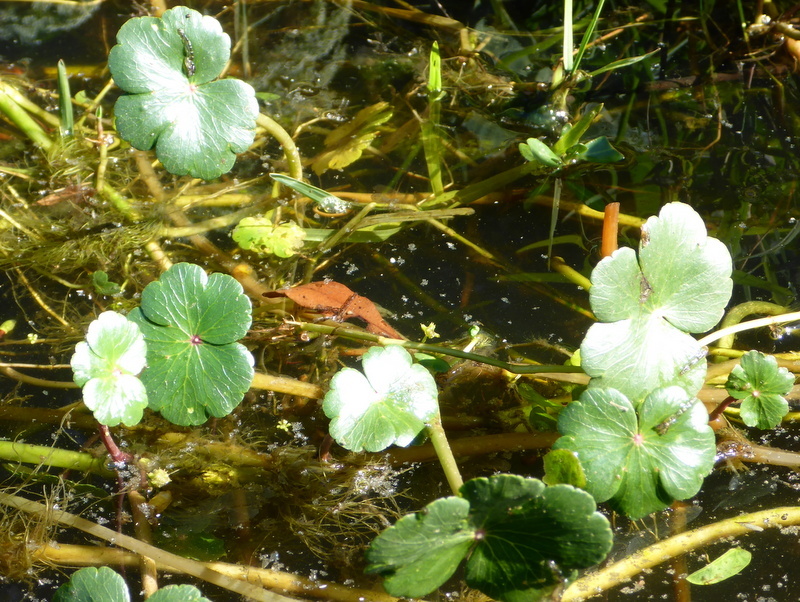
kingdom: Plantae
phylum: Tracheophyta
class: Magnoliopsida
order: Apiales
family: Araliaceae
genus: Hydrocotyle
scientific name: Hydrocotyle ranunculoides
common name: Floating pennywort
